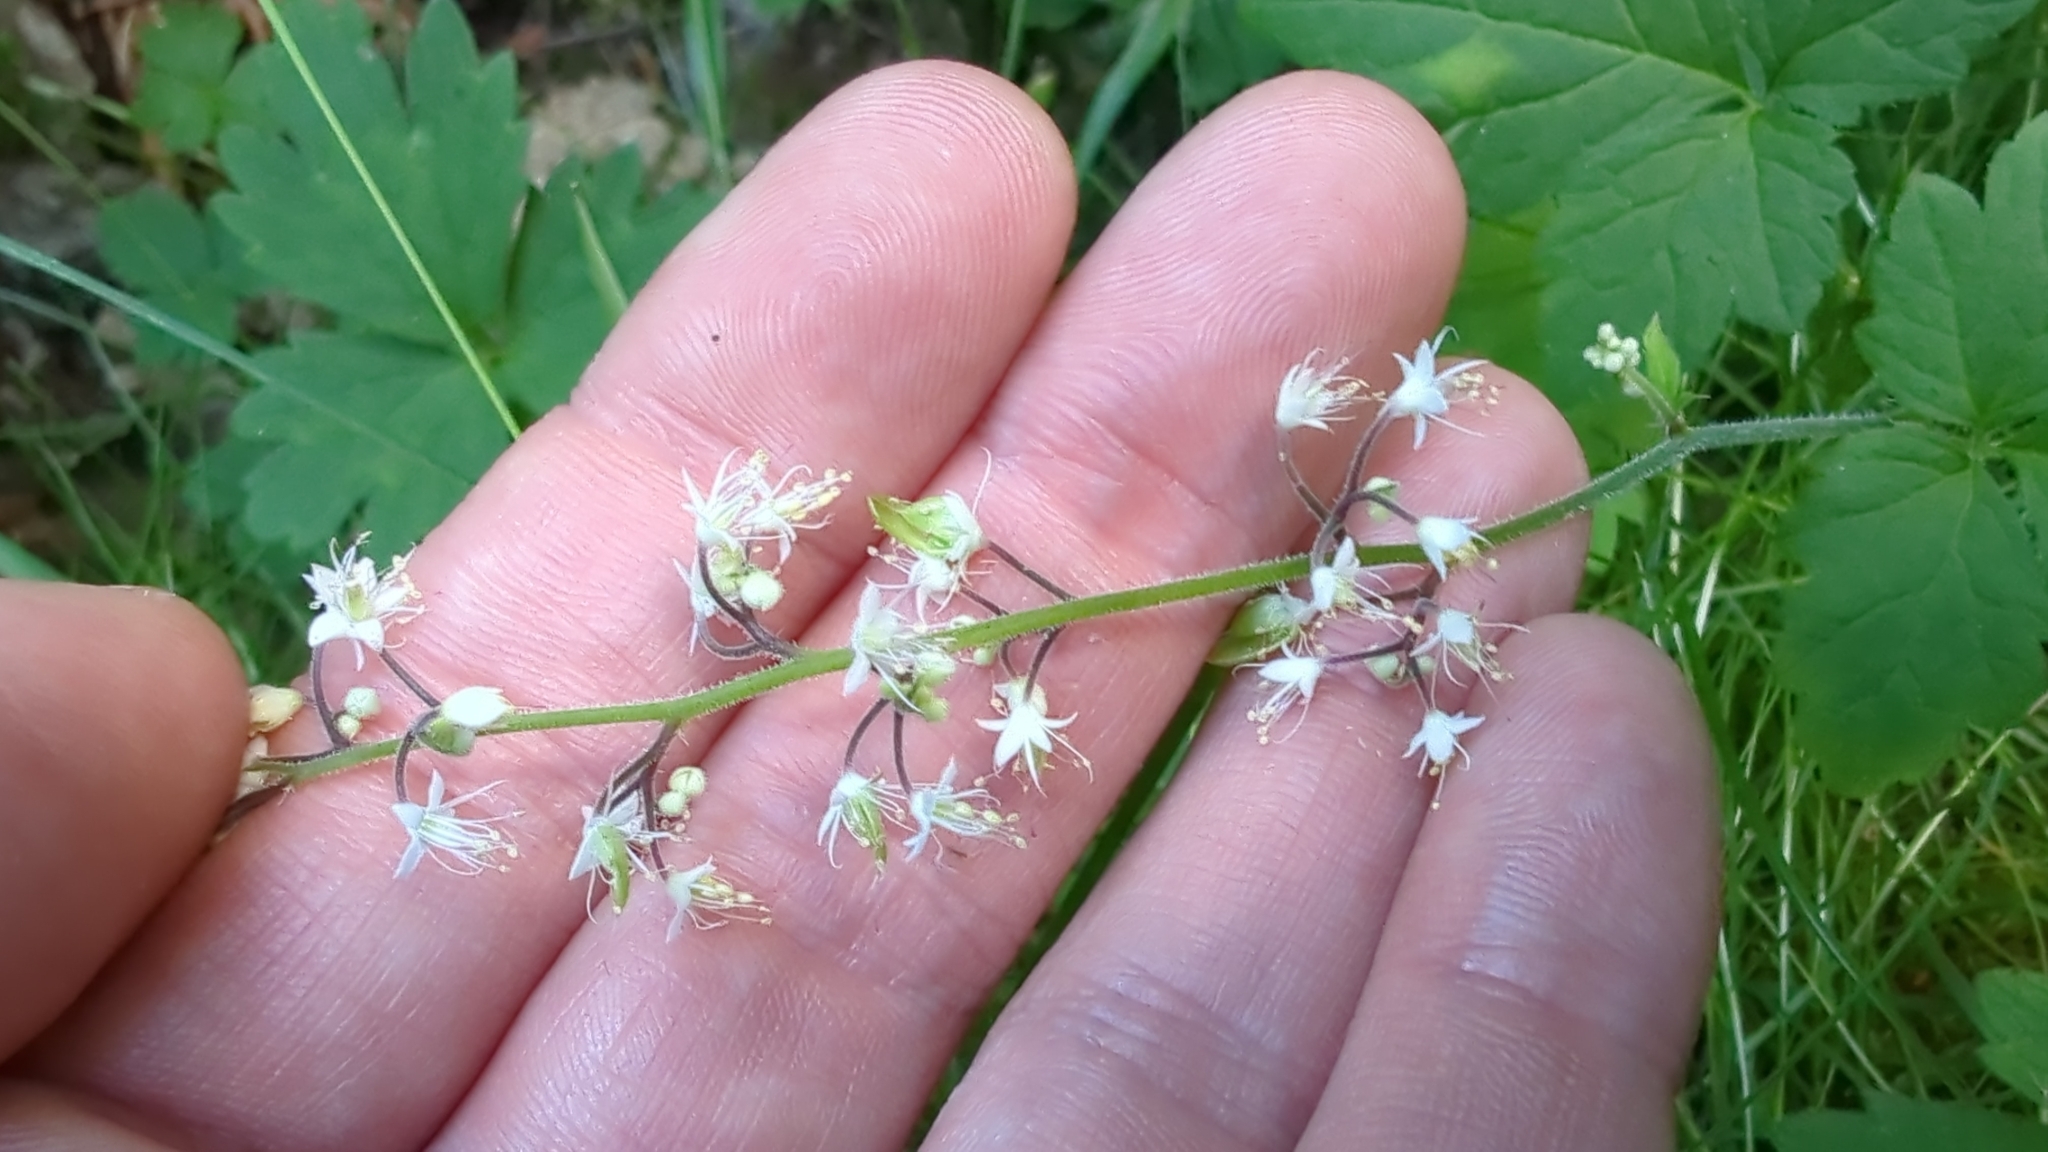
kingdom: Plantae
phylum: Tracheophyta
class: Magnoliopsida
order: Saxifragales
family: Saxifragaceae
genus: Tiarella
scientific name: Tiarella trifoliata
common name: Sugar-scoop
